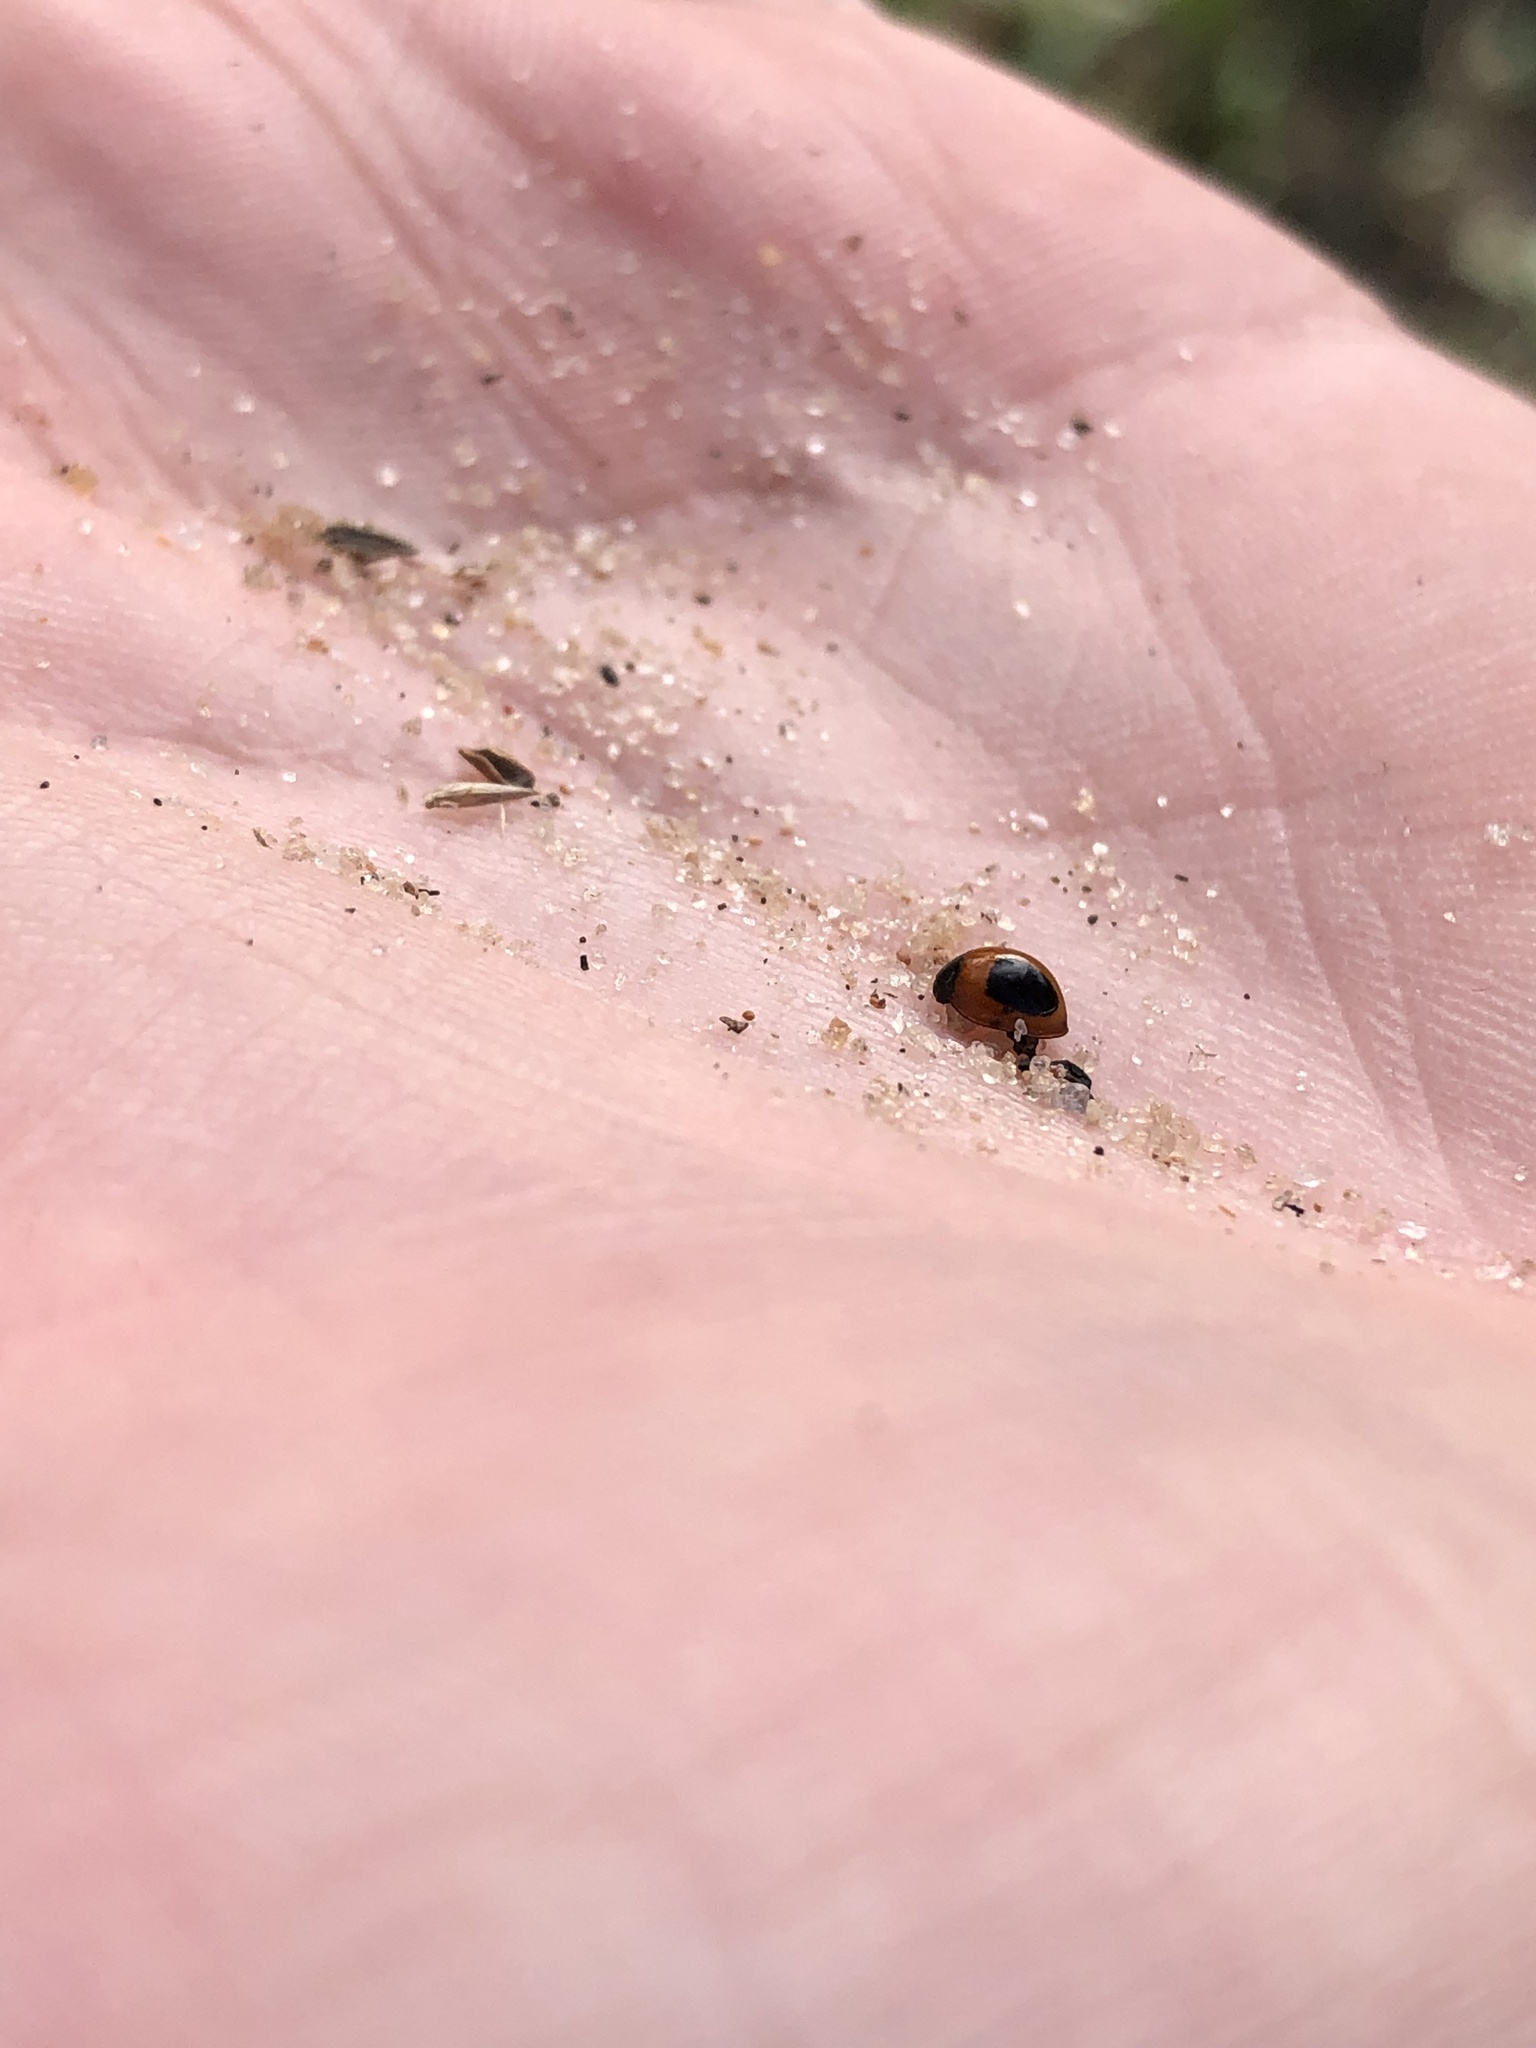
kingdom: Animalia
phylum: Arthropoda
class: Insecta
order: Coleoptera
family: Coccinellidae
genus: Zagreus
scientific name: Zagreus bimaculosus
